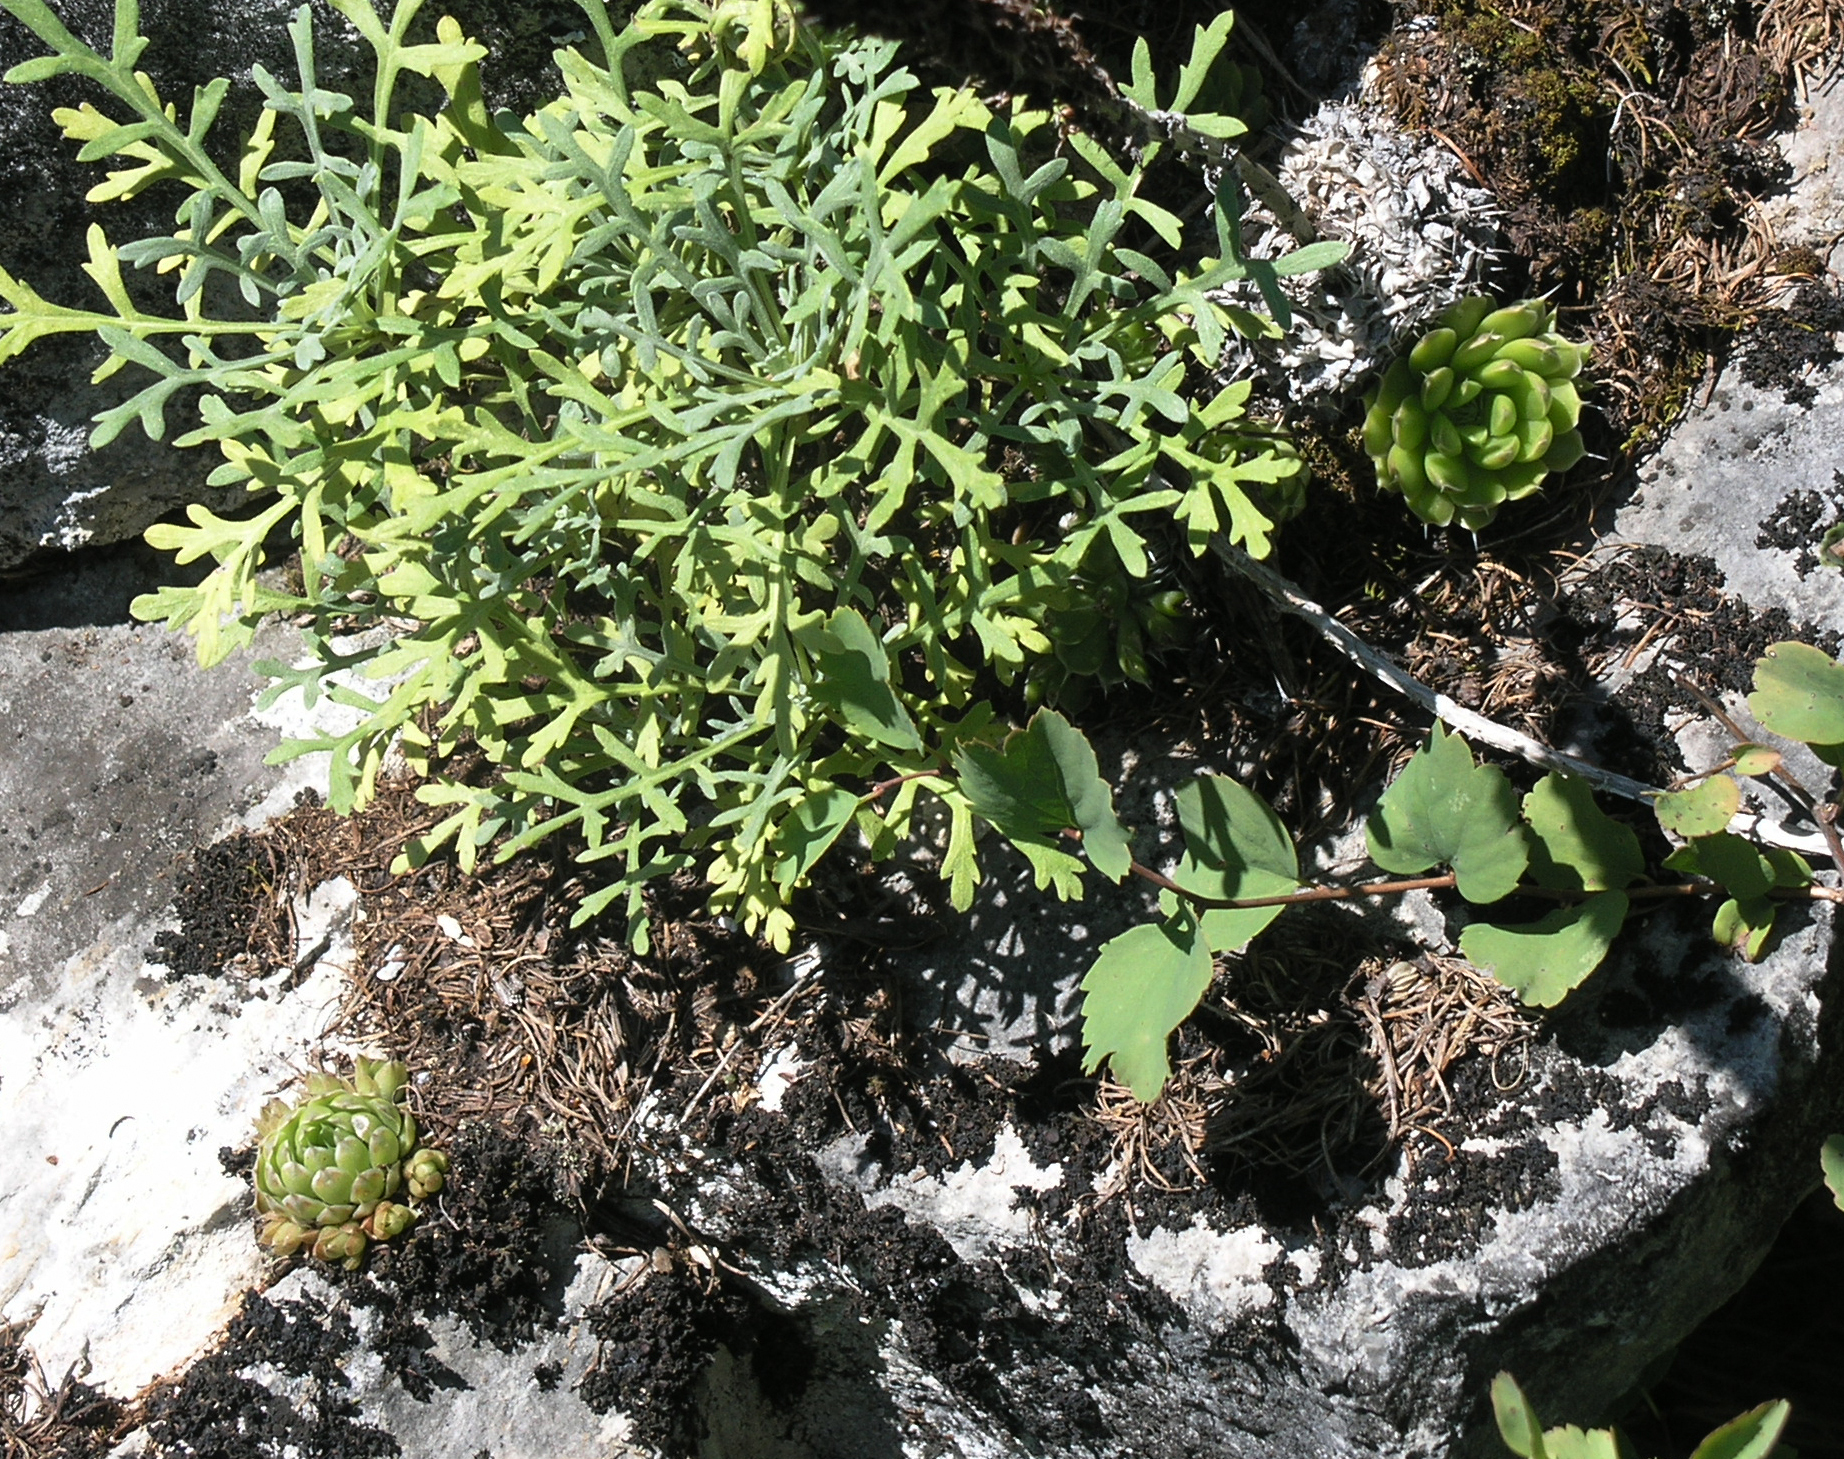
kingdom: Plantae
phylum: Tracheophyta
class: Magnoliopsida
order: Saxifragales
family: Crassulaceae
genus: Orostachys
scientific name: Orostachys spinosa
